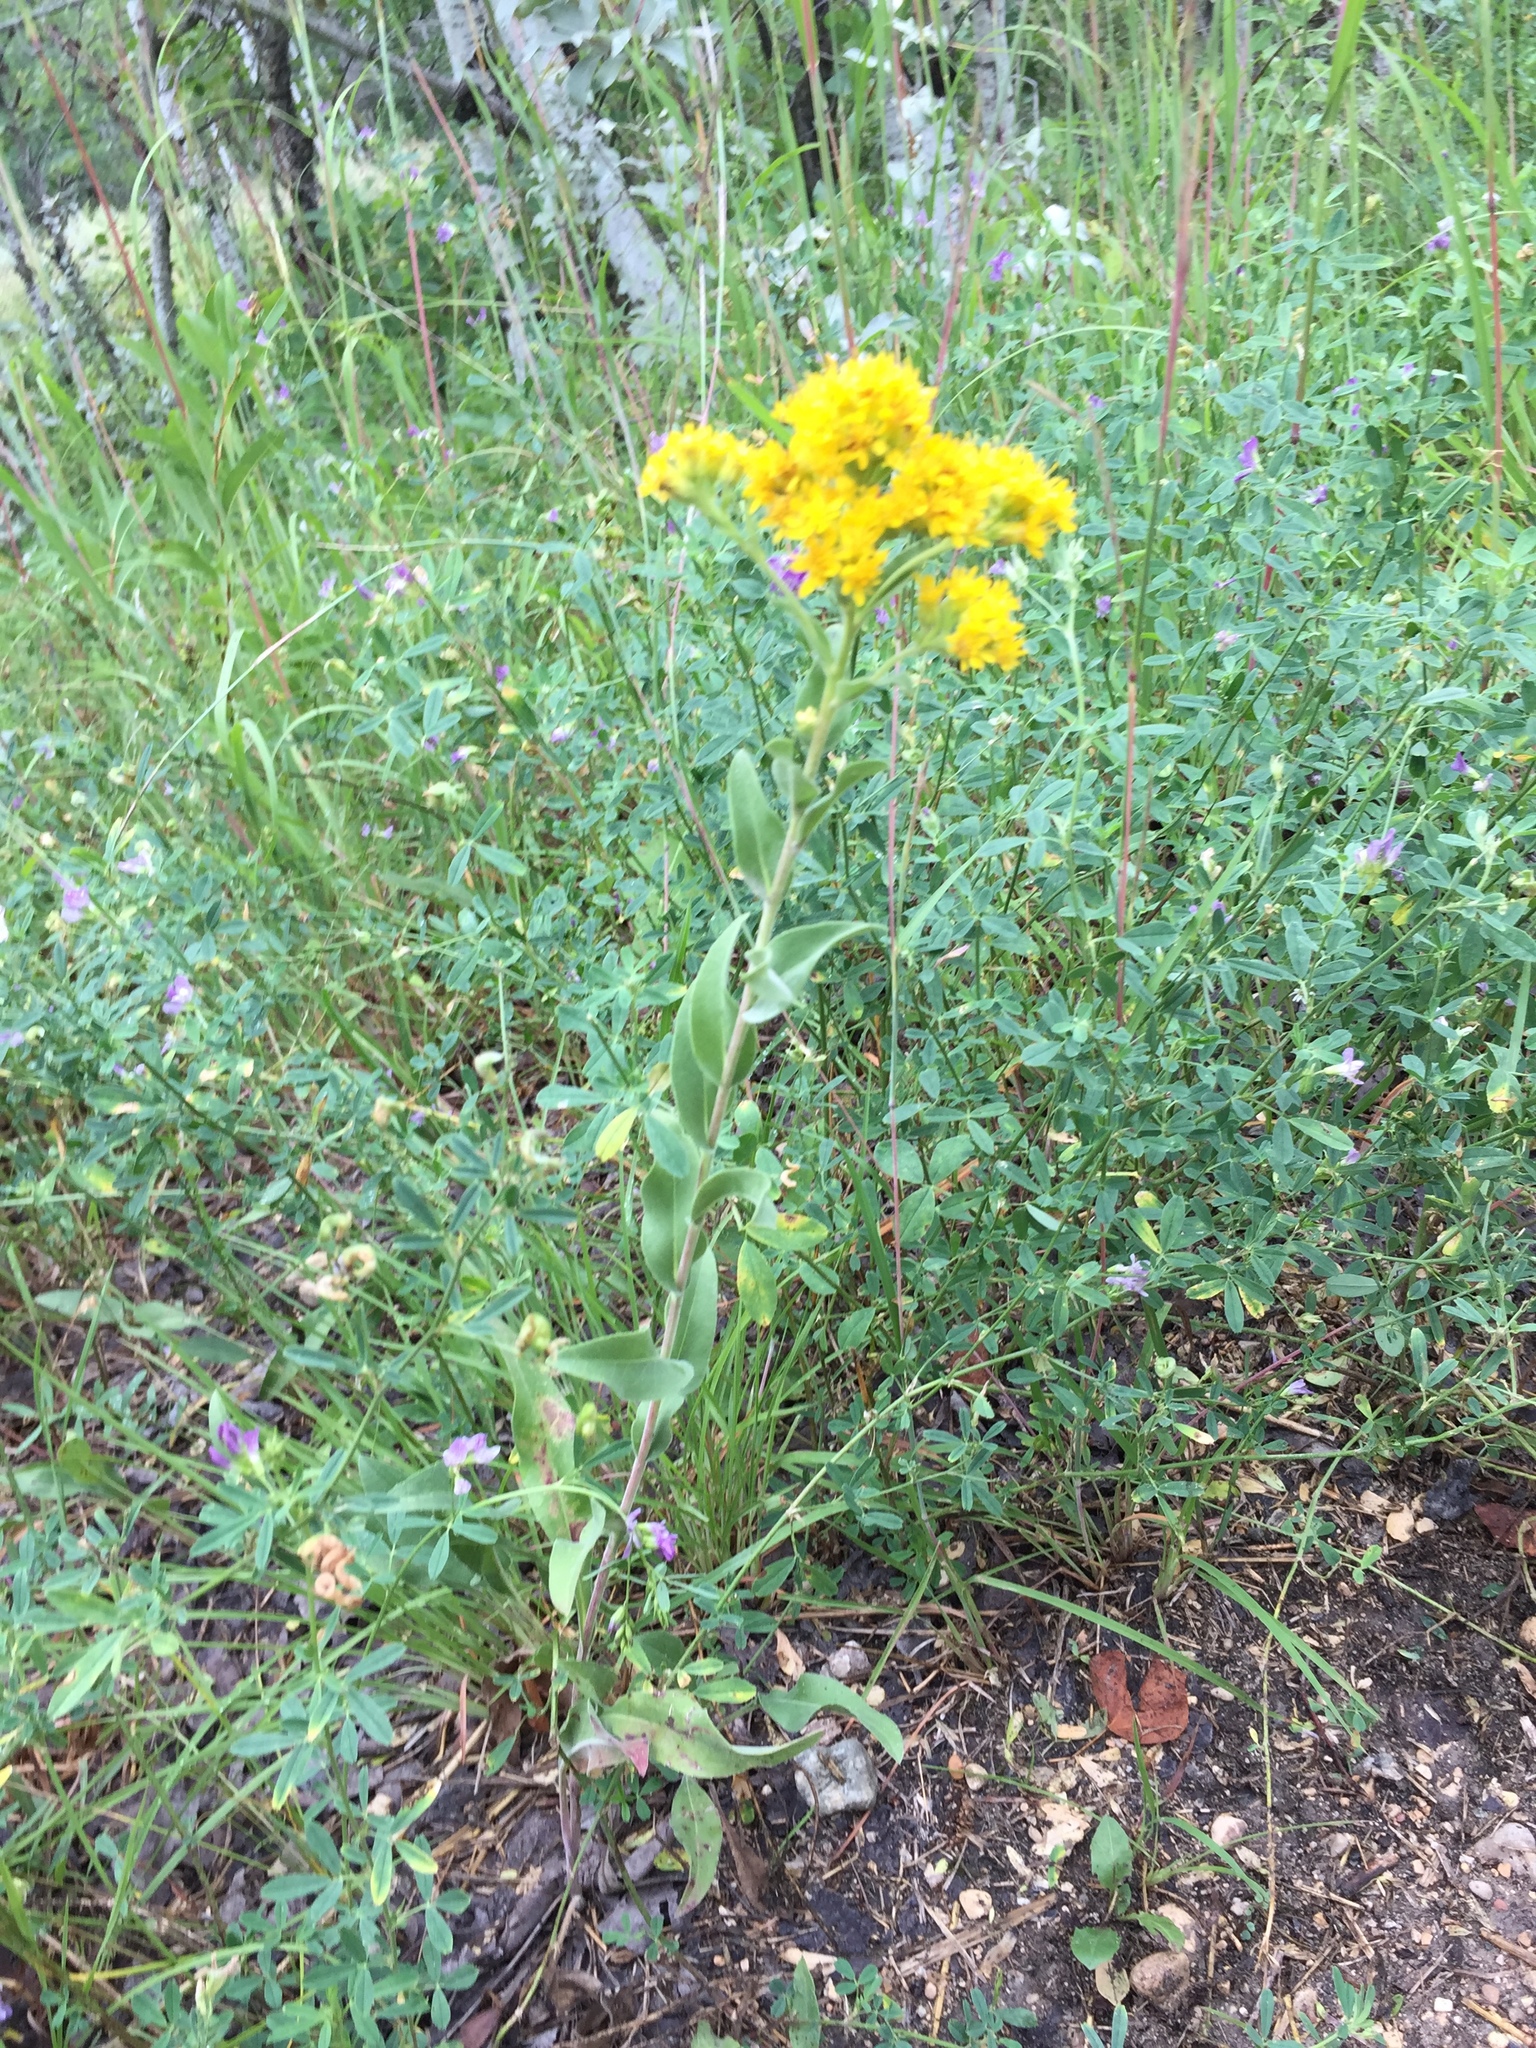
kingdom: Plantae
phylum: Tracheophyta
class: Magnoliopsida
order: Asterales
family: Asteraceae
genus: Solidago
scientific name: Solidago rigida
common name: Rigid goldenrod
